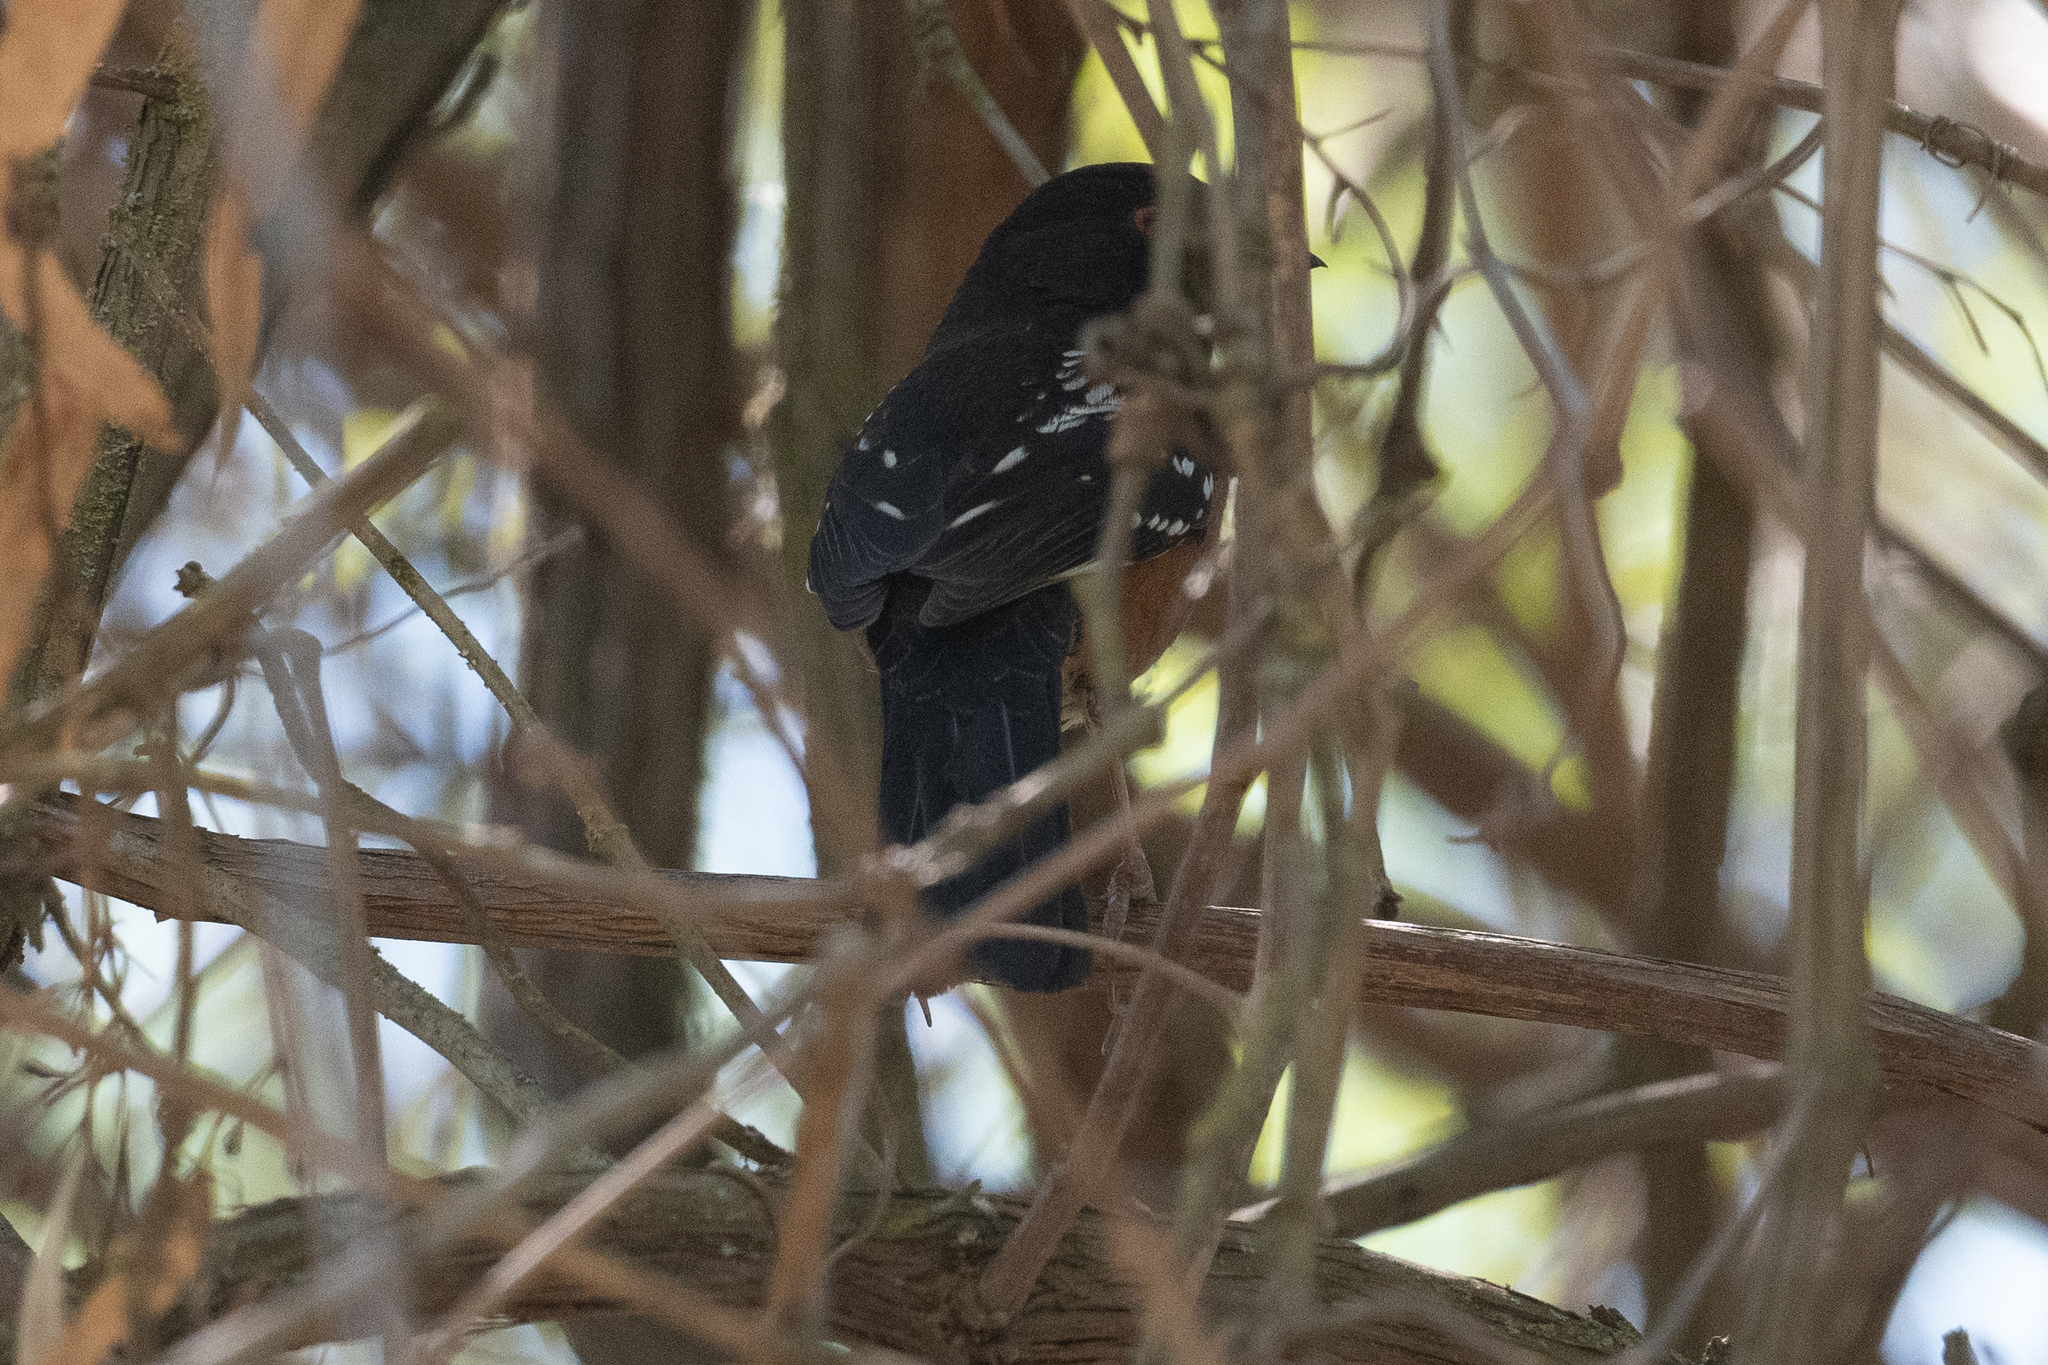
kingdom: Animalia
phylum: Chordata
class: Aves
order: Passeriformes
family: Passerellidae
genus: Pipilo
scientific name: Pipilo maculatus
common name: Spotted towhee
